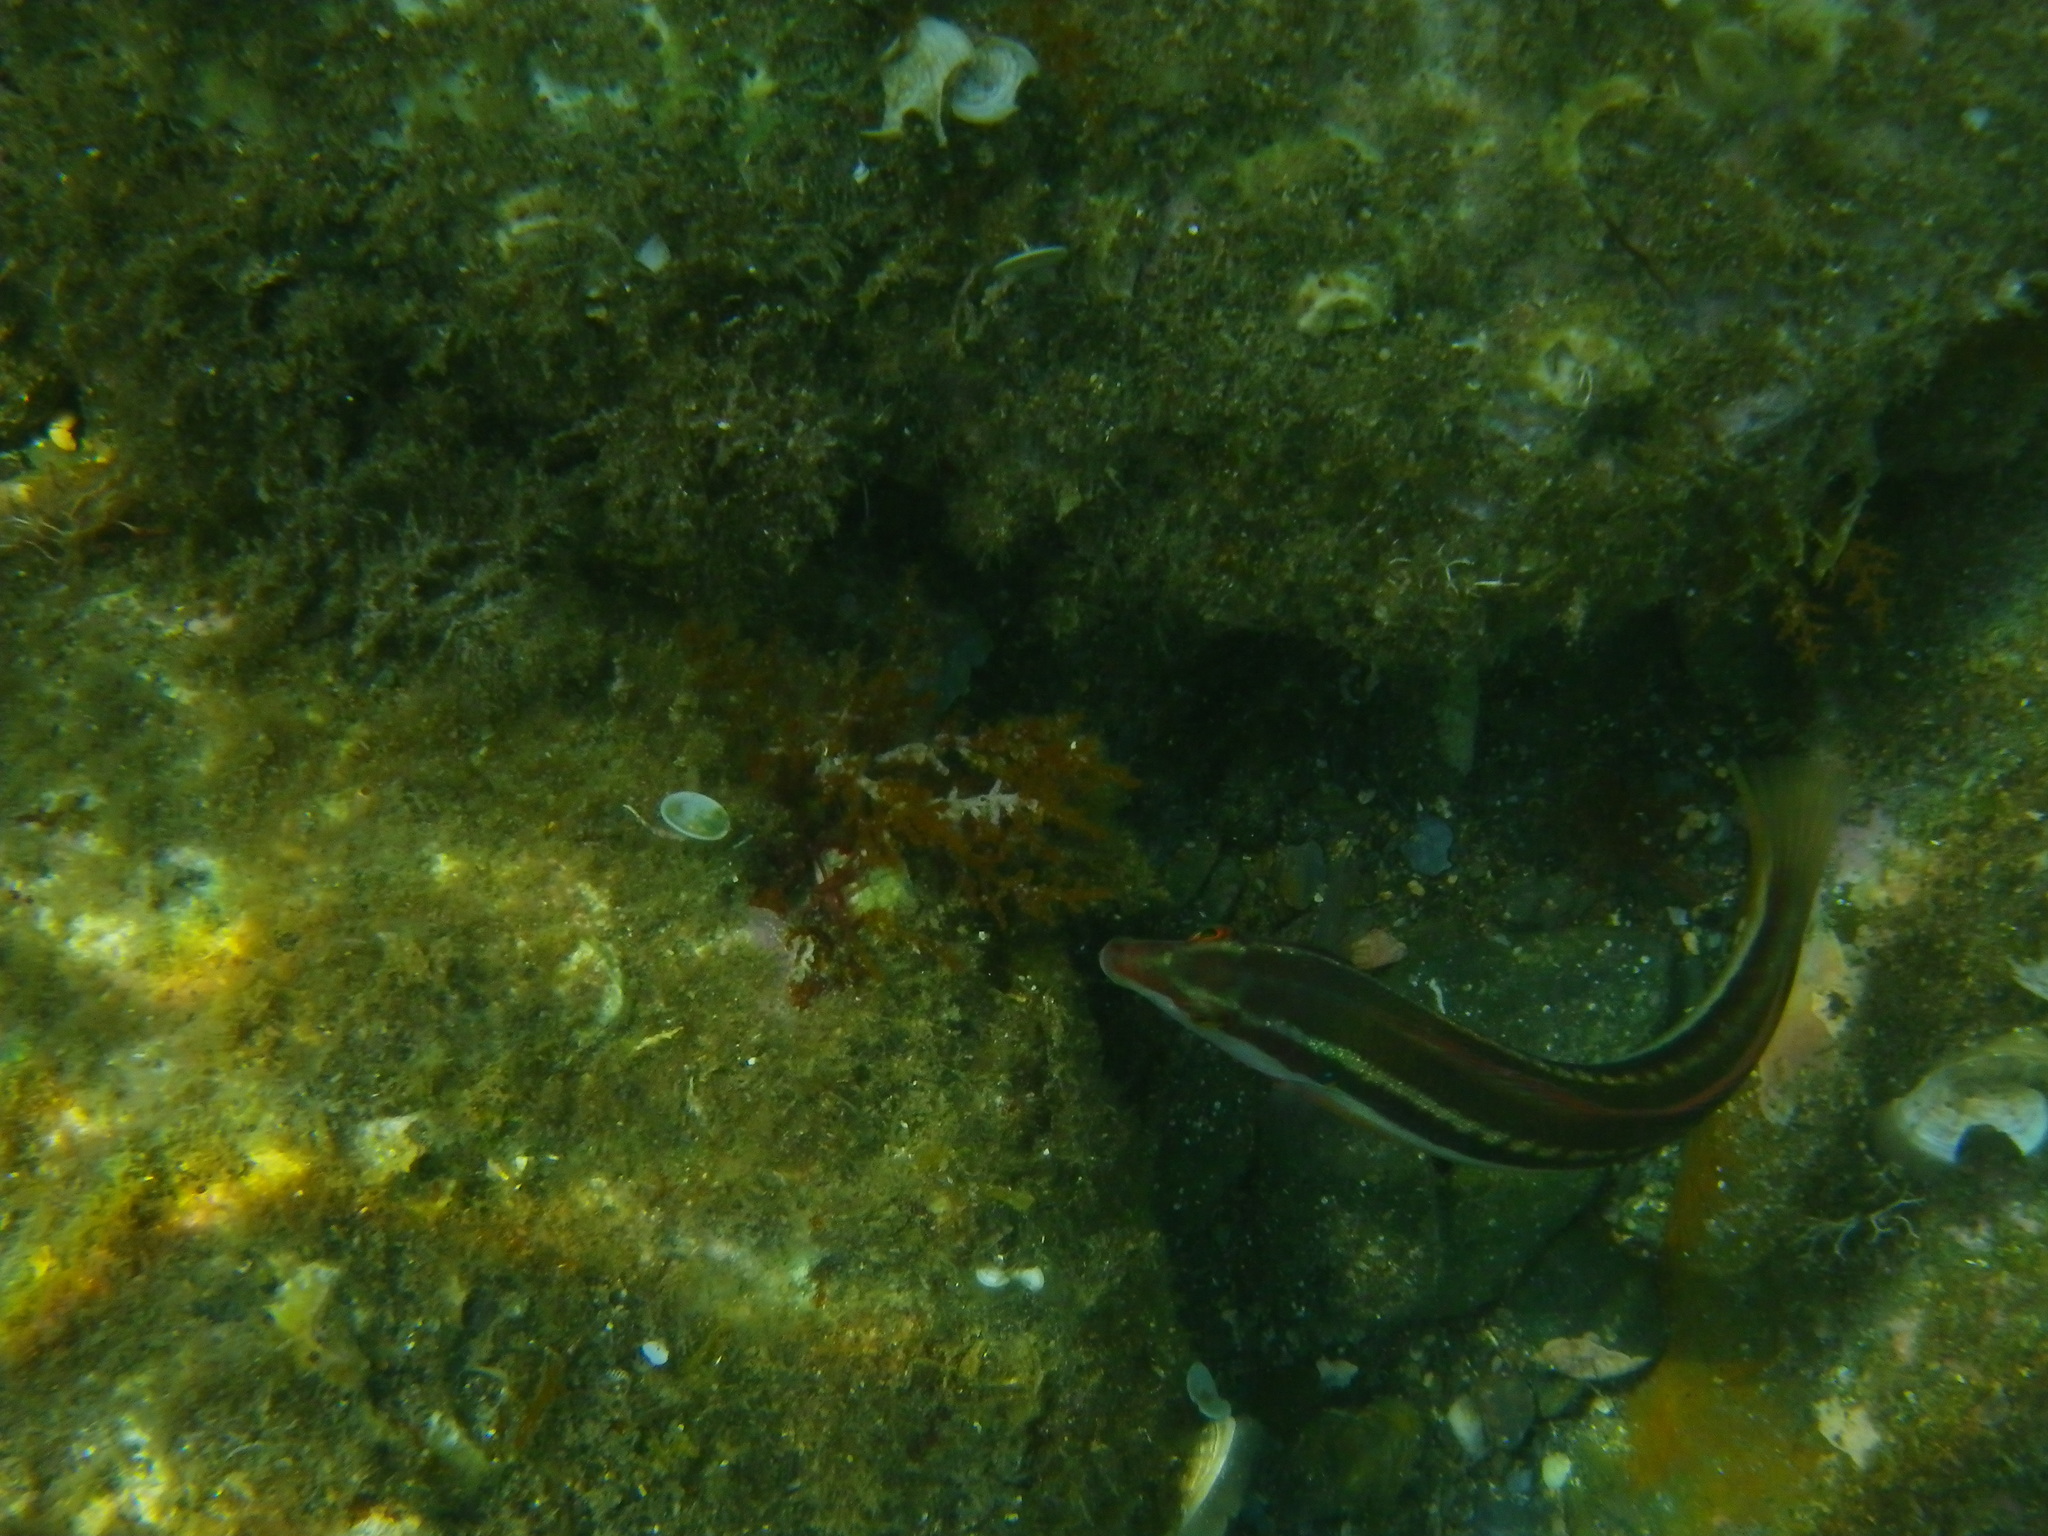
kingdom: Animalia
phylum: Chordata
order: Perciformes
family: Labridae
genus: Coris
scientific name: Coris julis
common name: Rainbow wrasse
